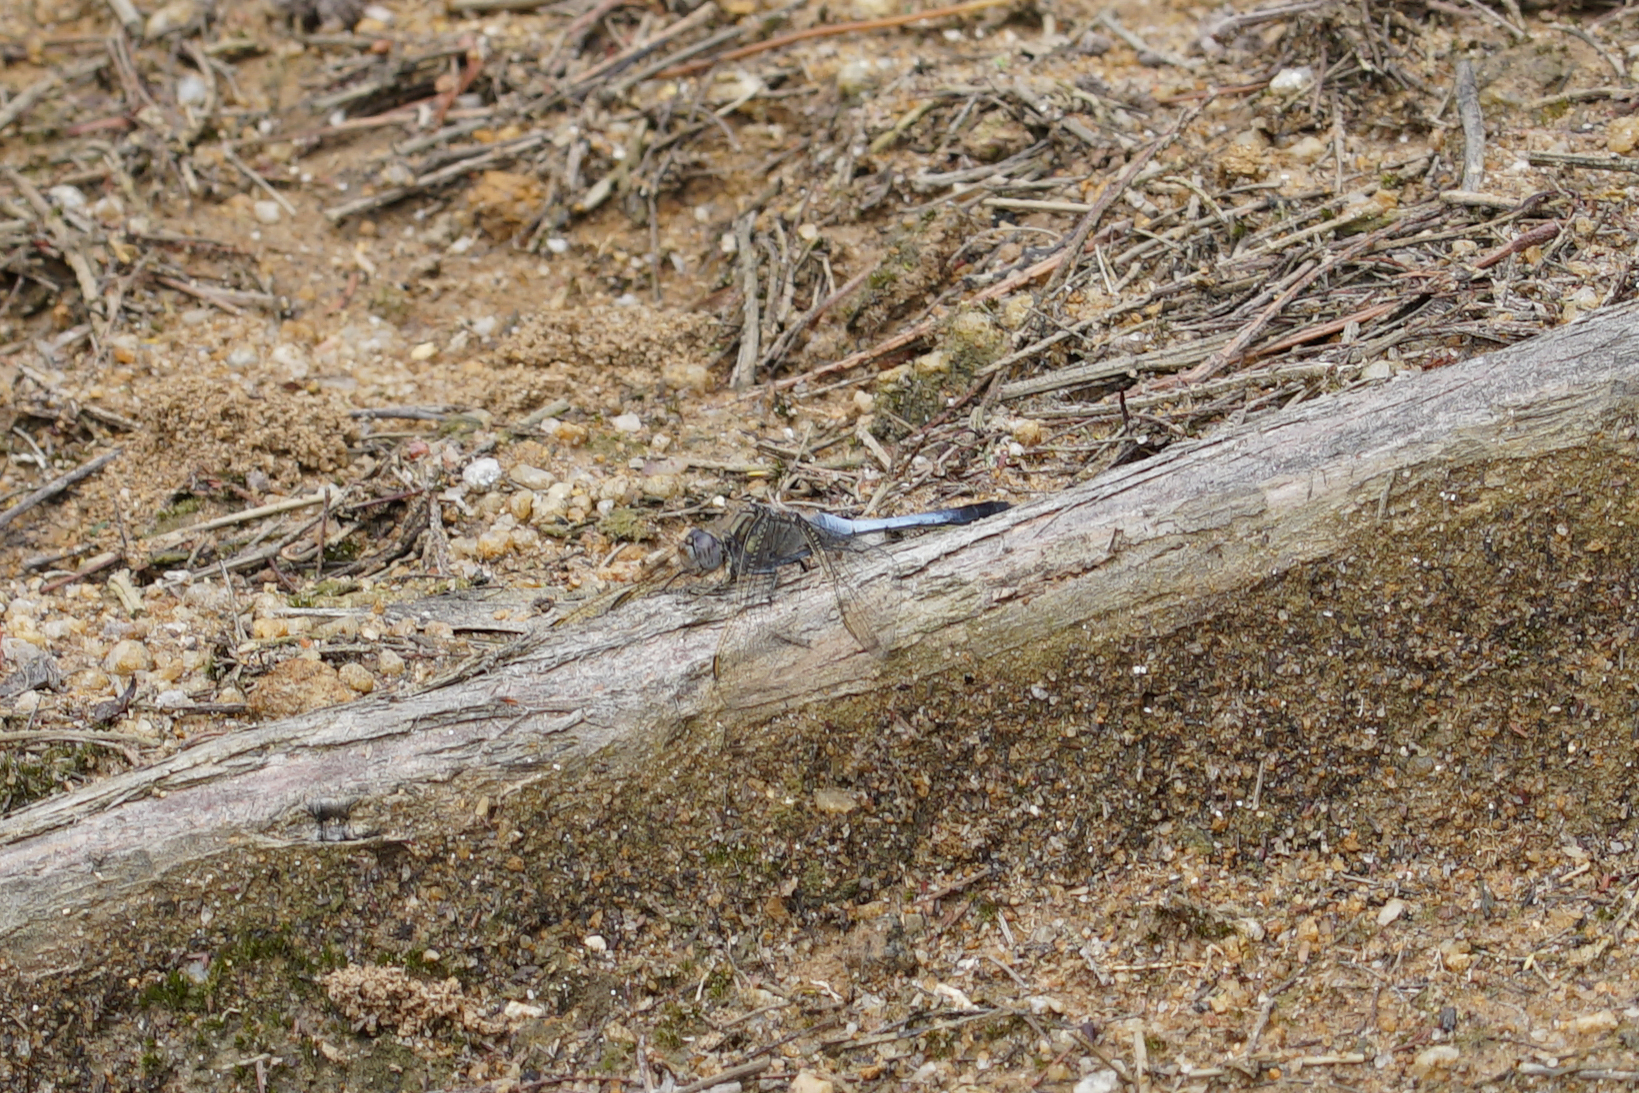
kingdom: Animalia
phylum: Arthropoda
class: Insecta
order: Odonata
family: Libellulidae
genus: Orthetrum
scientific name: Orthetrum caledonicum
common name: Blue skimmer
